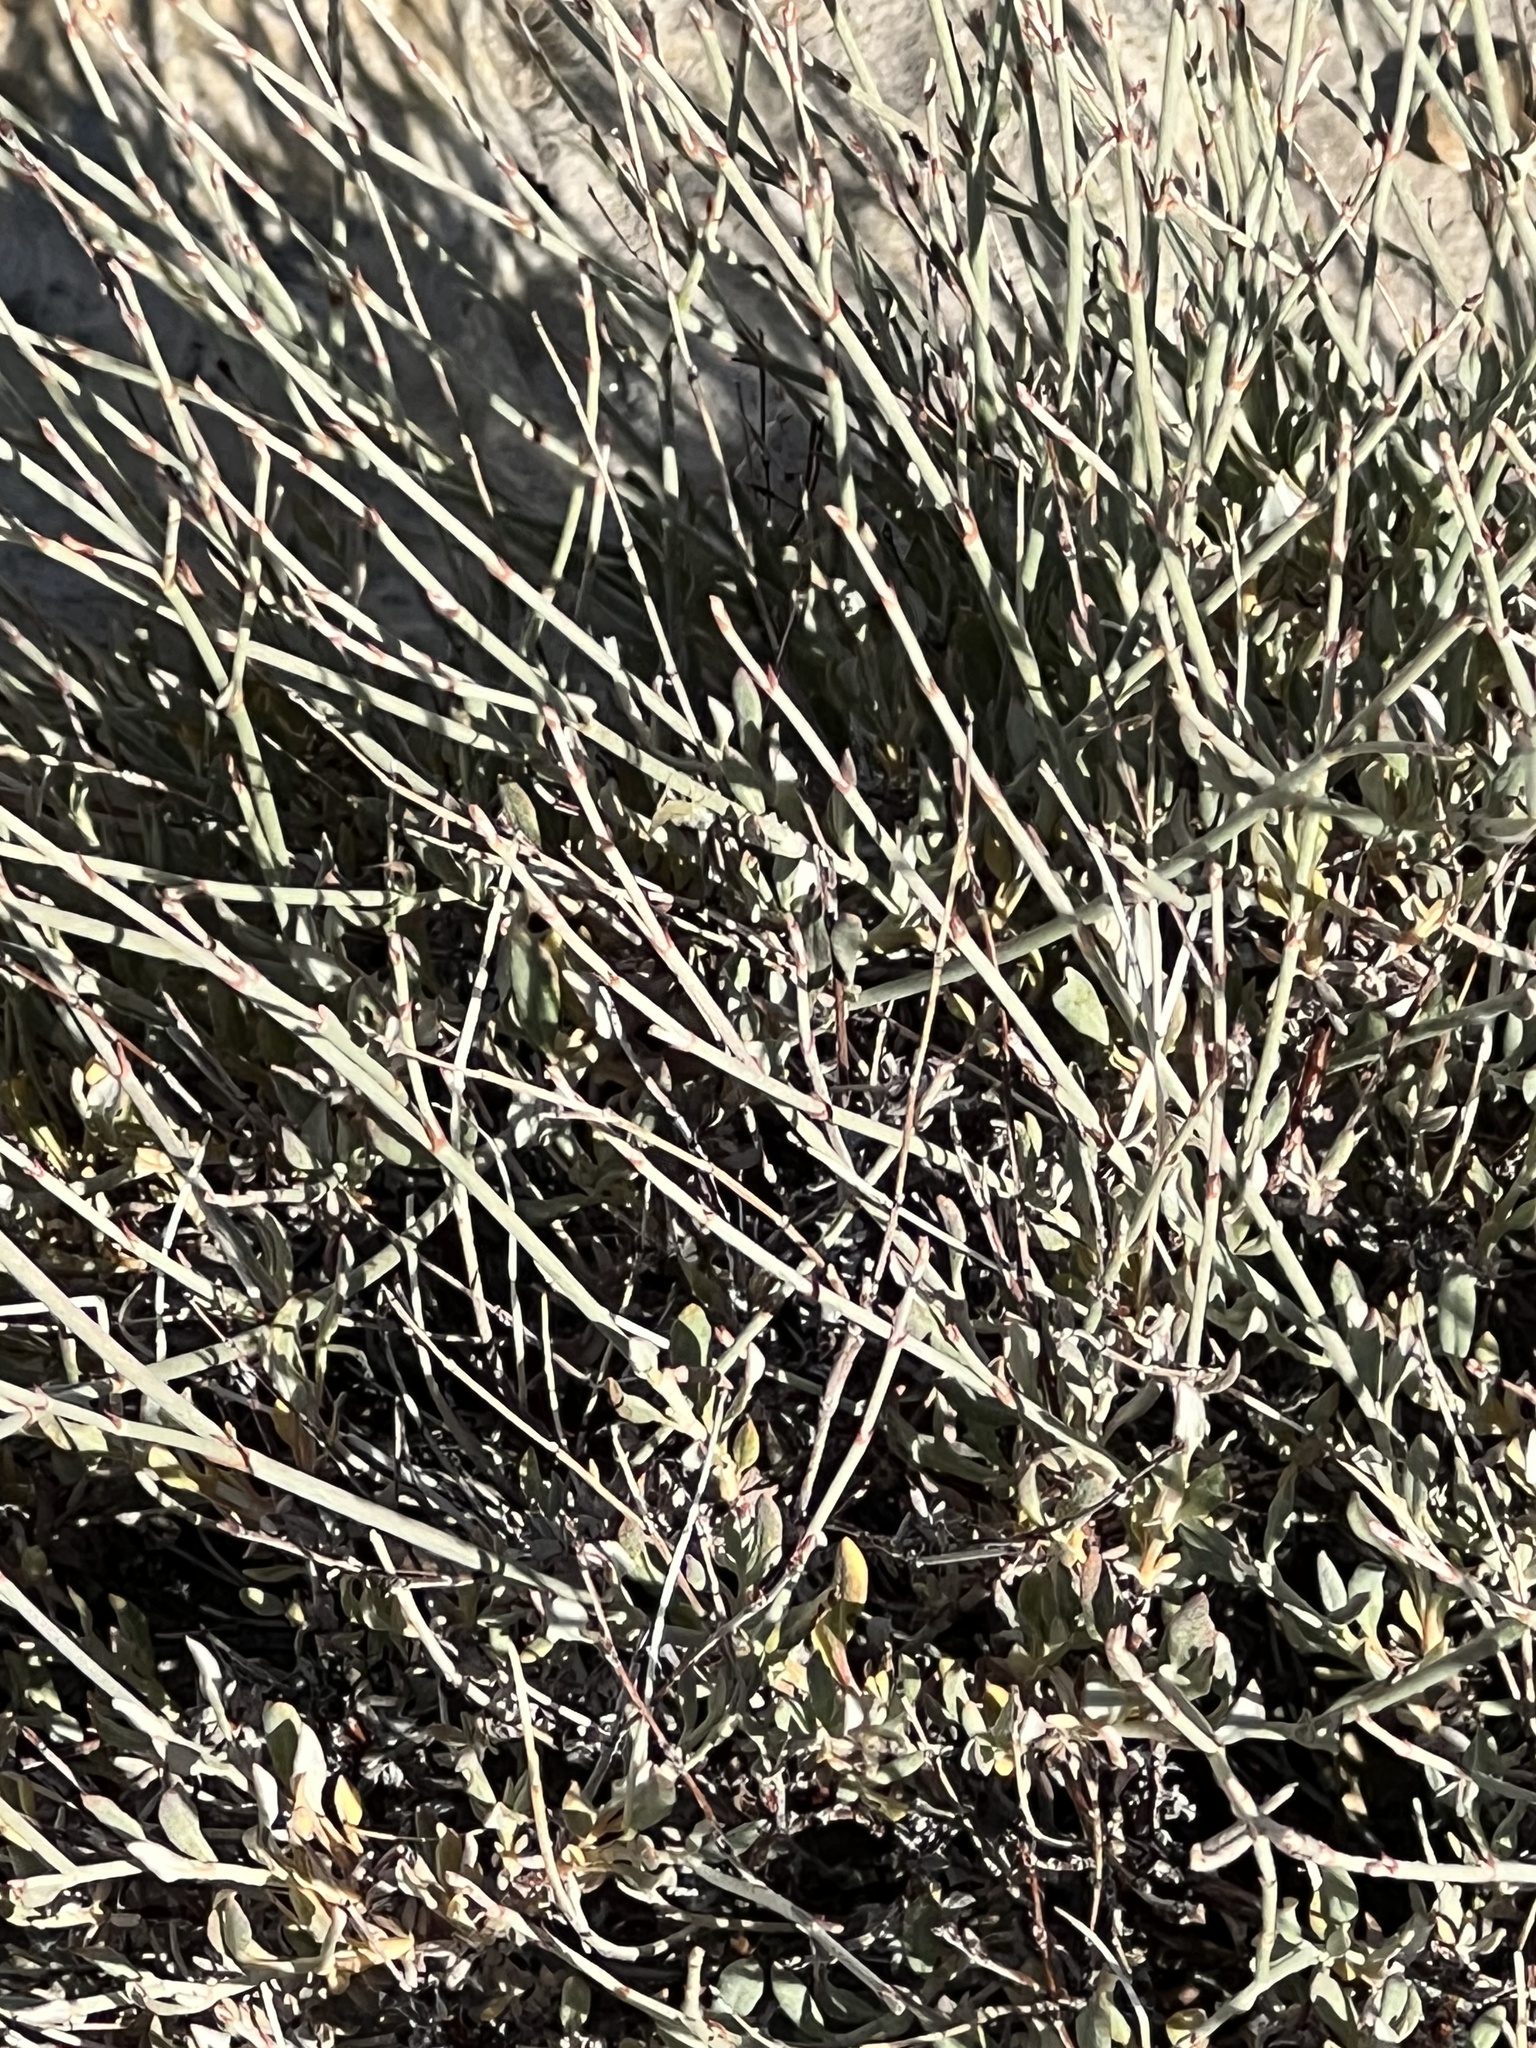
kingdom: Plantae
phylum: Tracheophyta
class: Gnetopsida
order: Ephedrales
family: Ephedraceae
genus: Ephedra
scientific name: Ephedra nevadensis
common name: Gray ephedra
